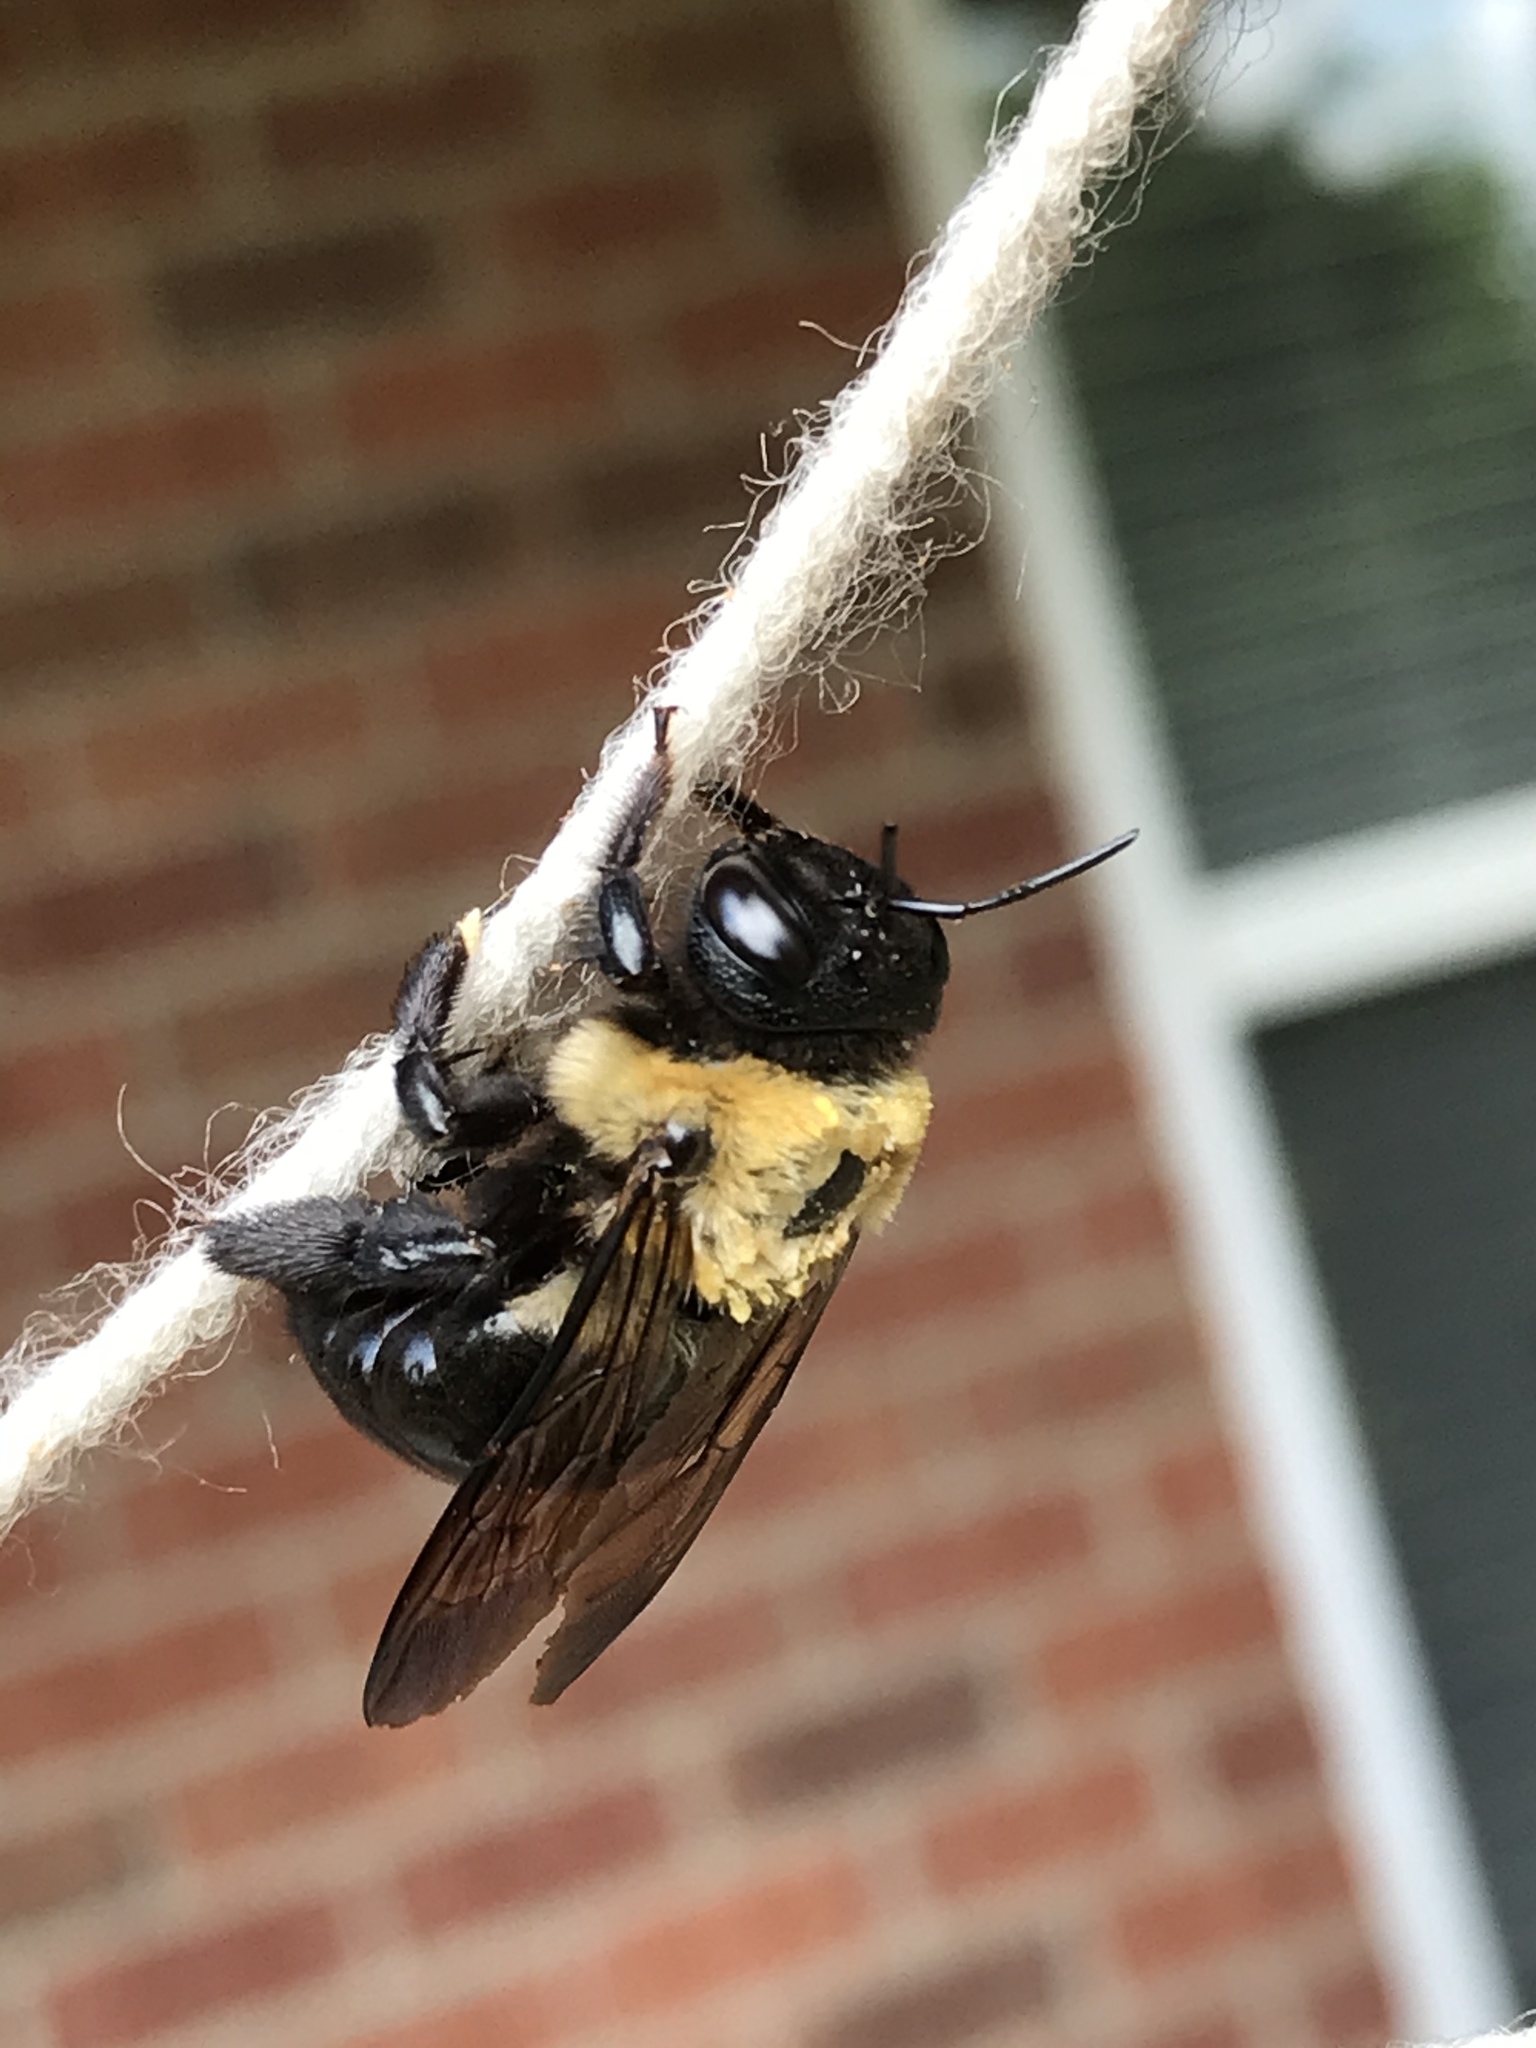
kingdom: Animalia
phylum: Arthropoda
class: Insecta
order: Hymenoptera
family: Apidae
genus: Xylocopa
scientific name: Xylocopa virginica
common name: Carpenter bee
